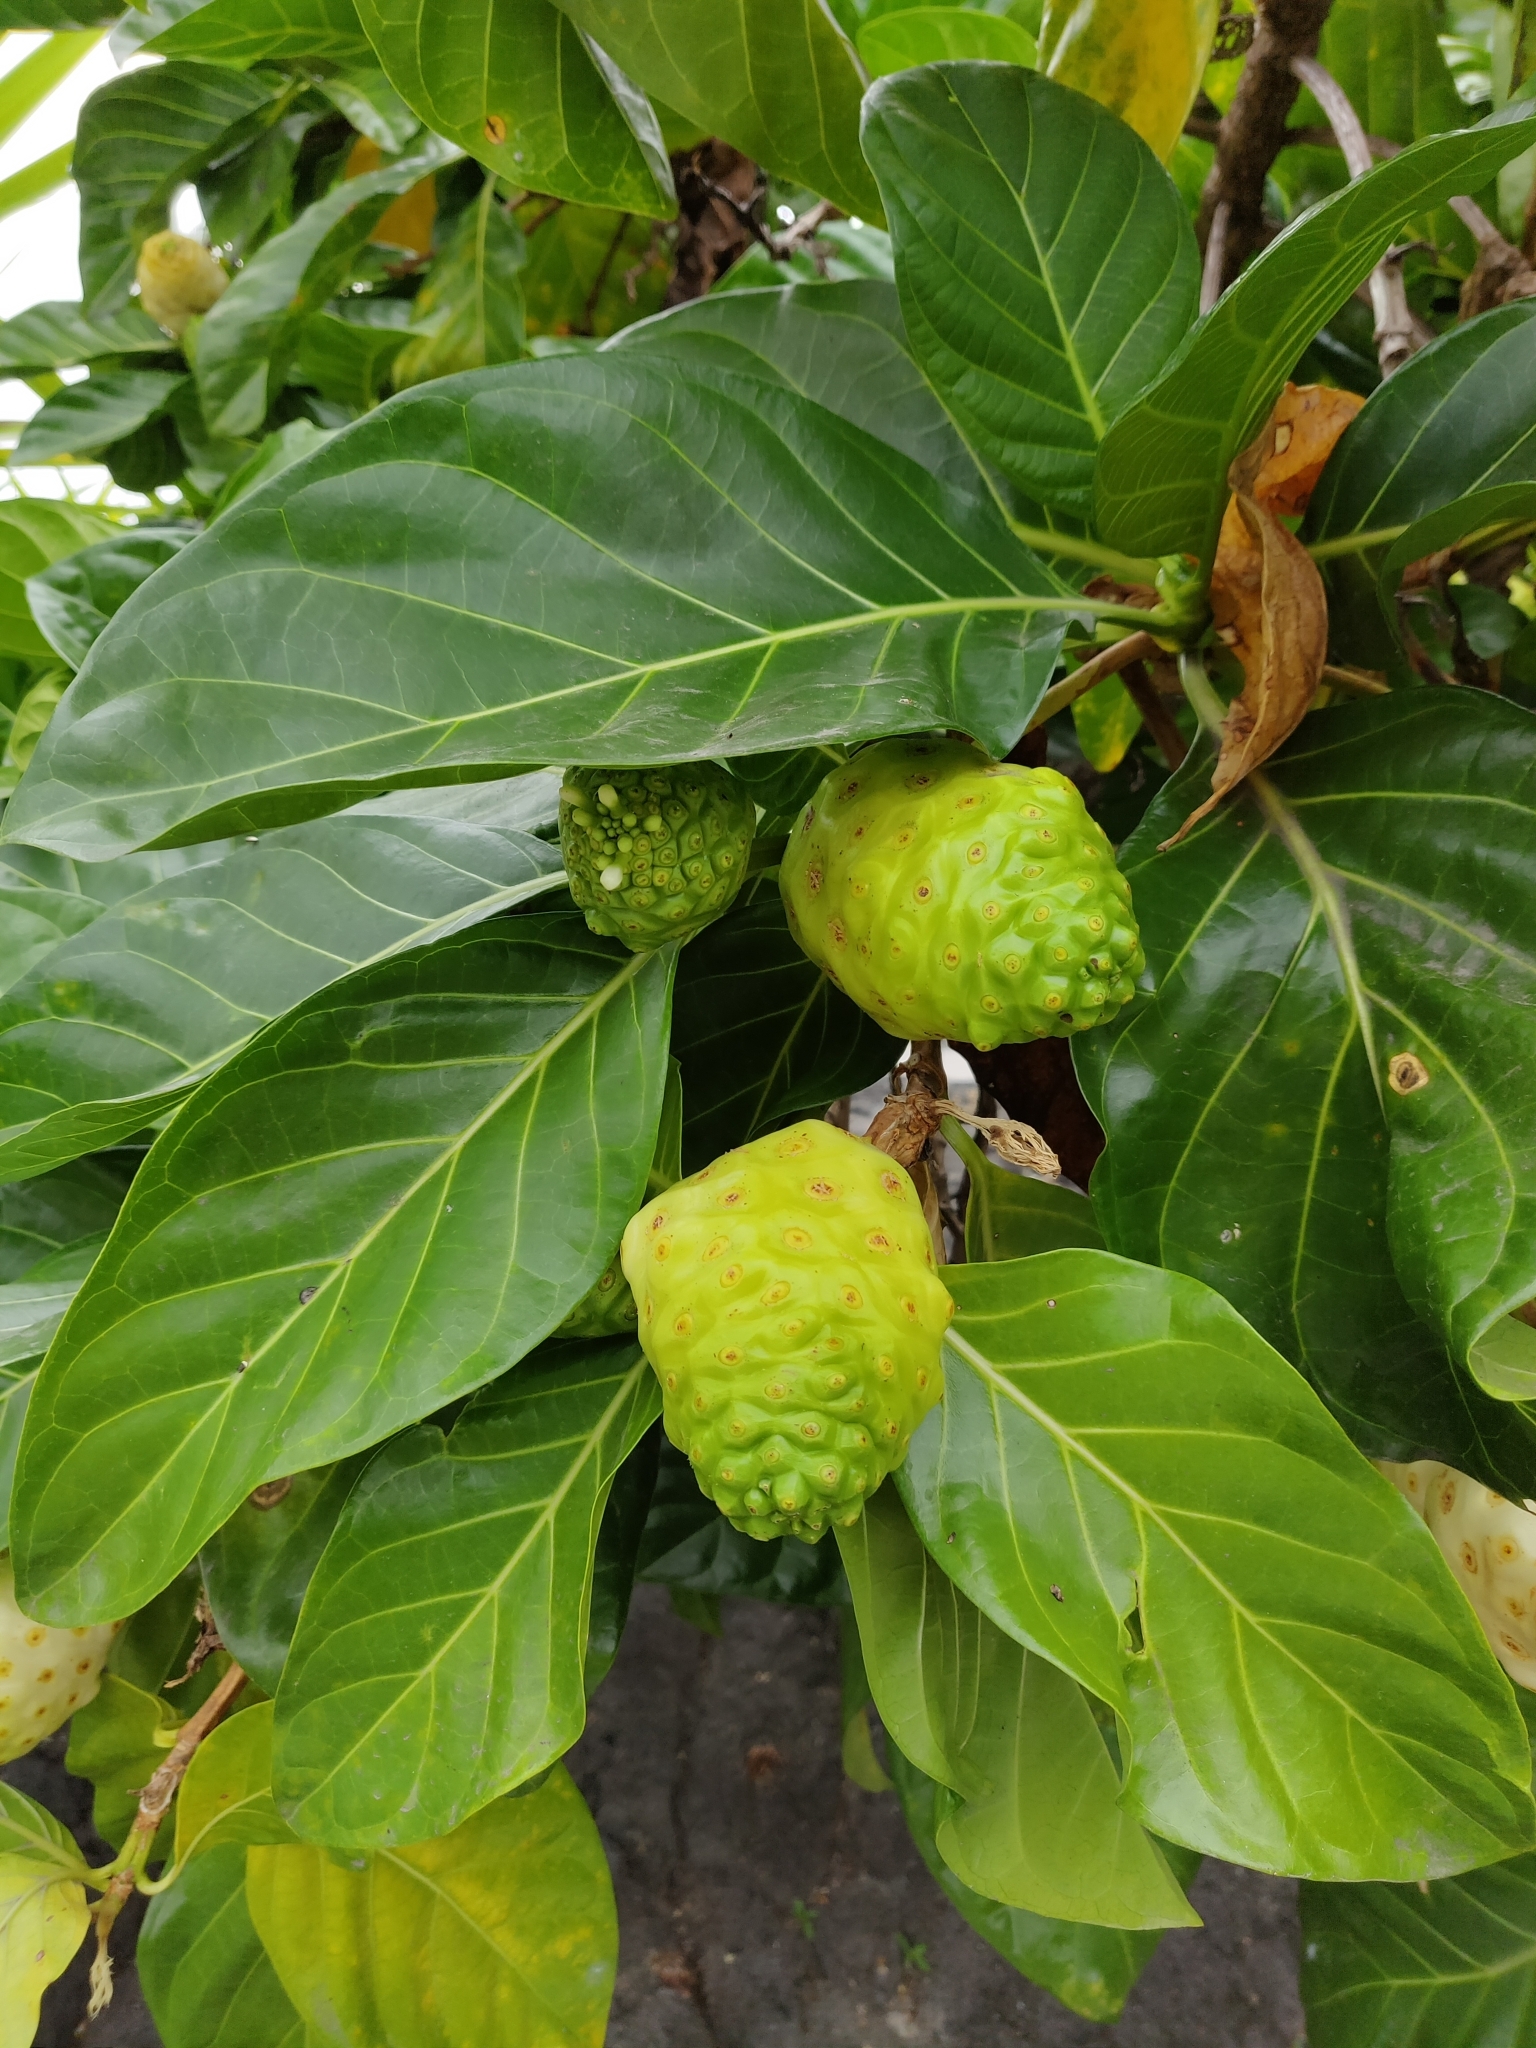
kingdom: Plantae
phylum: Tracheophyta
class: Magnoliopsida
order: Gentianales
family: Rubiaceae
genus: Morinda
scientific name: Morinda citrifolia
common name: Indian-mulberry
